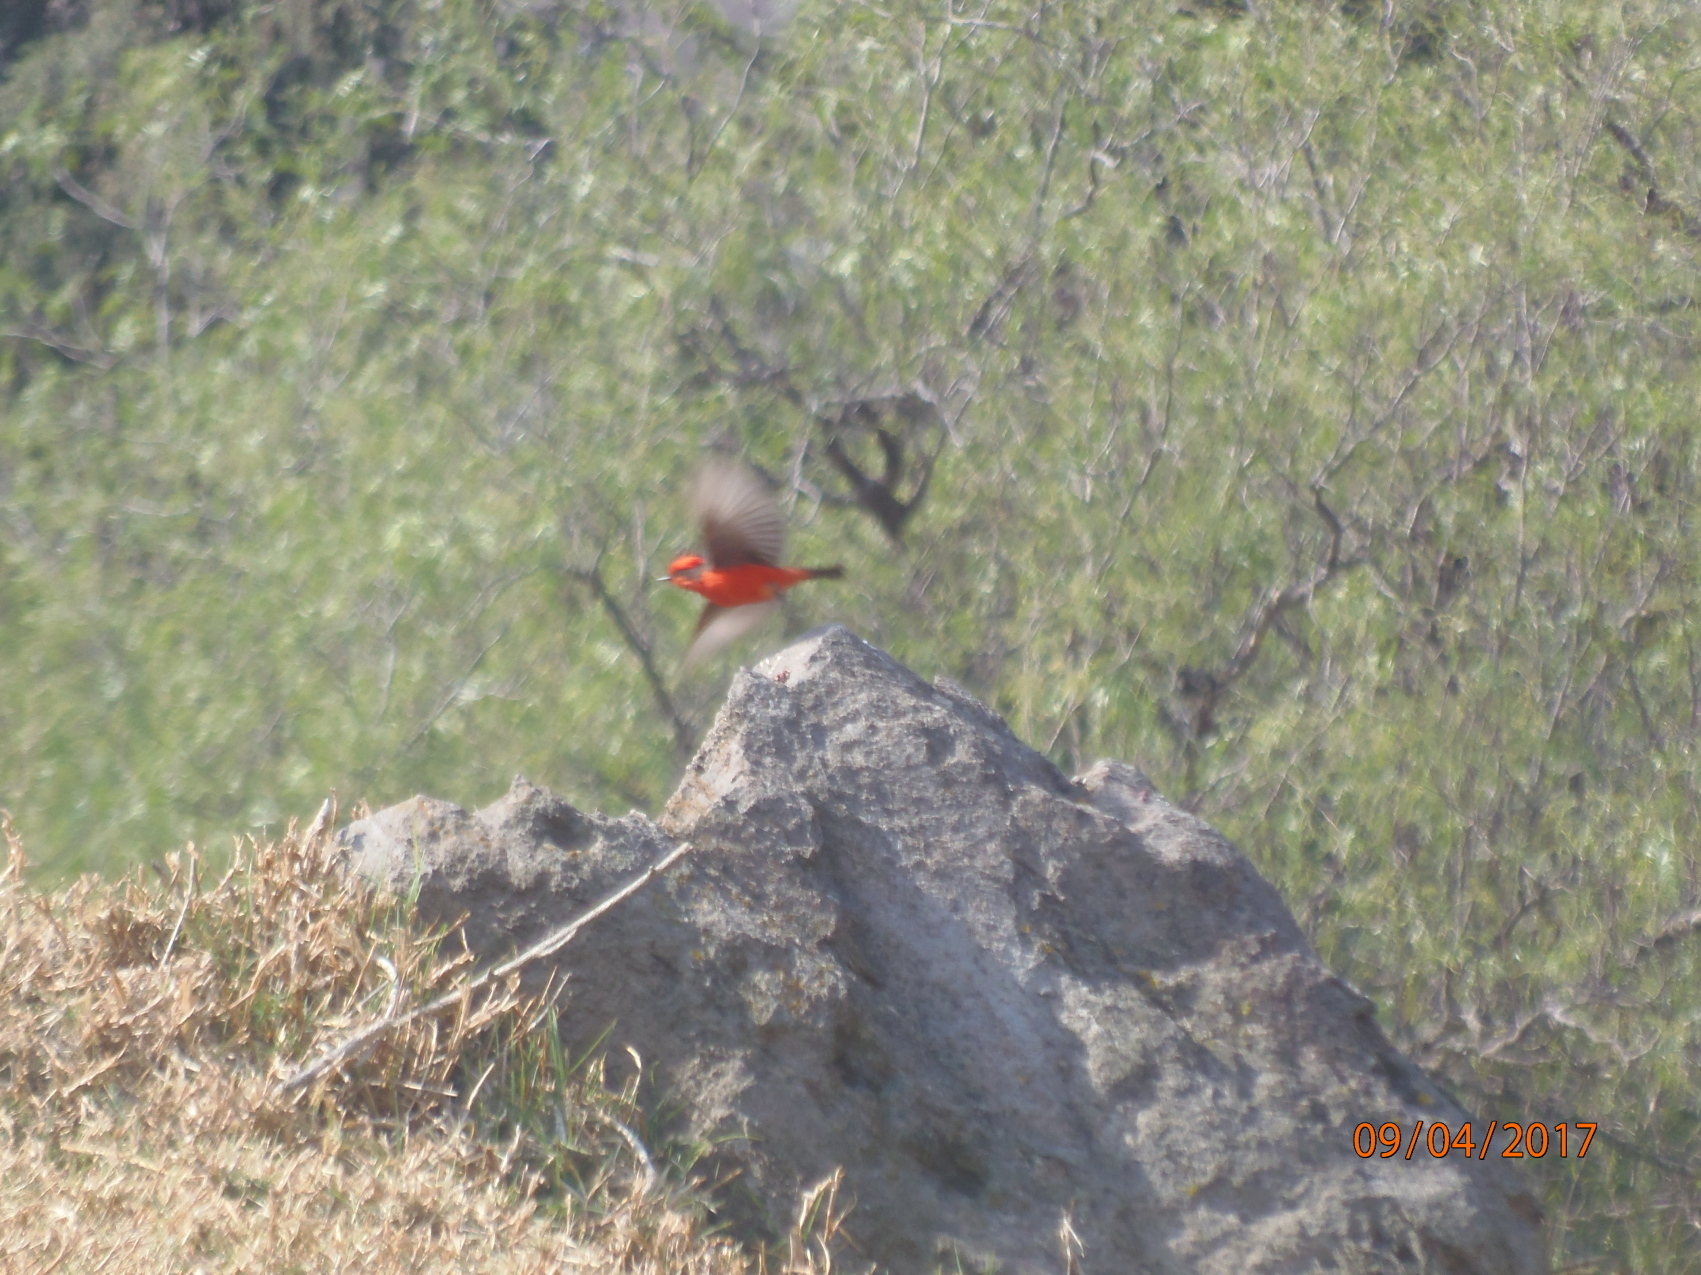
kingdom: Animalia
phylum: Chordata
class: Aves
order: Passeriformes
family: Tyrannidae
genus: Pyrocephalus
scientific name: Pyrocephalus rubinus
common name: Vermilion flycatcher
